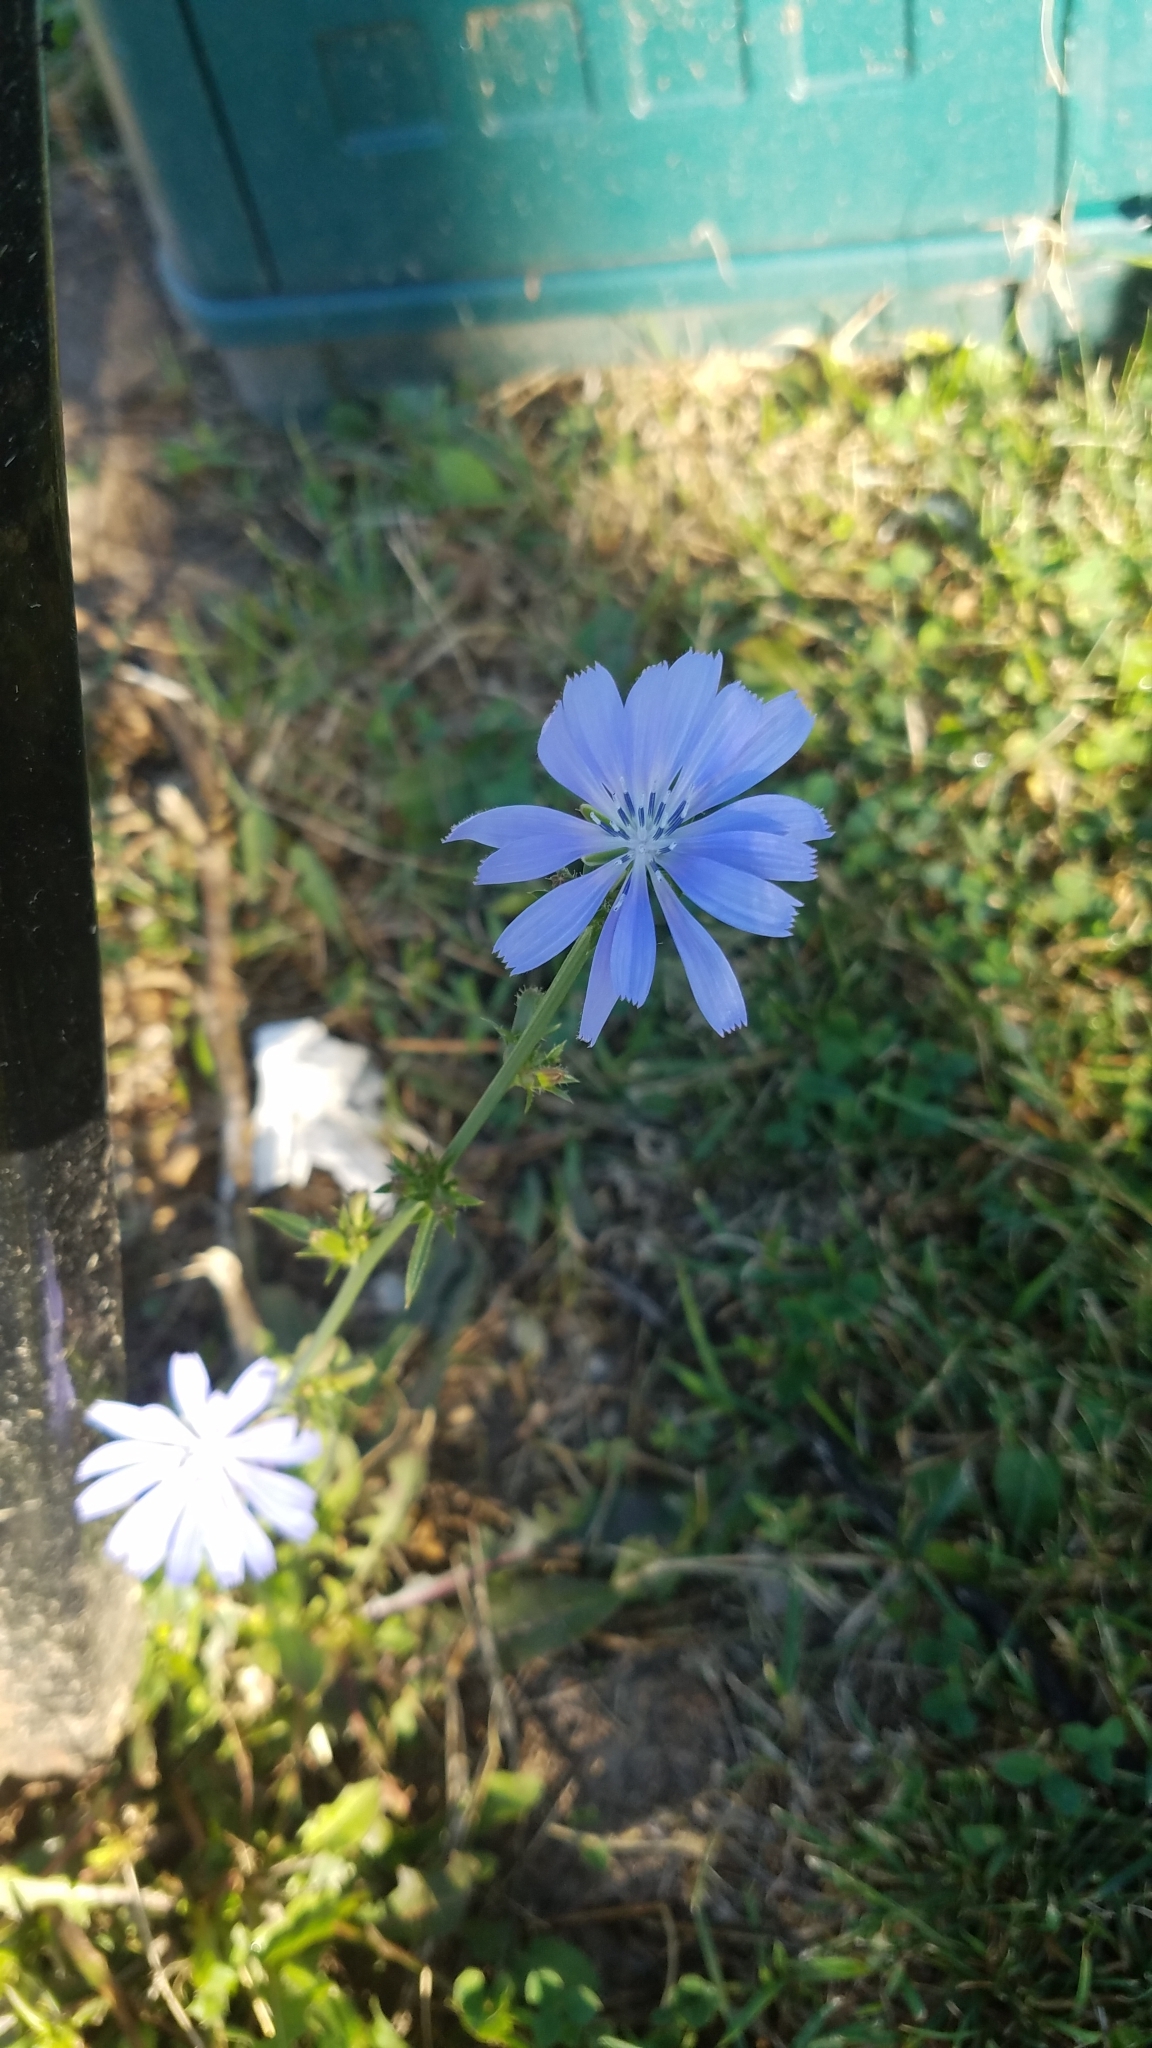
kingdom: Plantae
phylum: Tracheophyta
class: Magnoliopsida
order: Asterales
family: Asteraceae
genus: Cichorium
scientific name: Cichorium intybus
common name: Chicory
